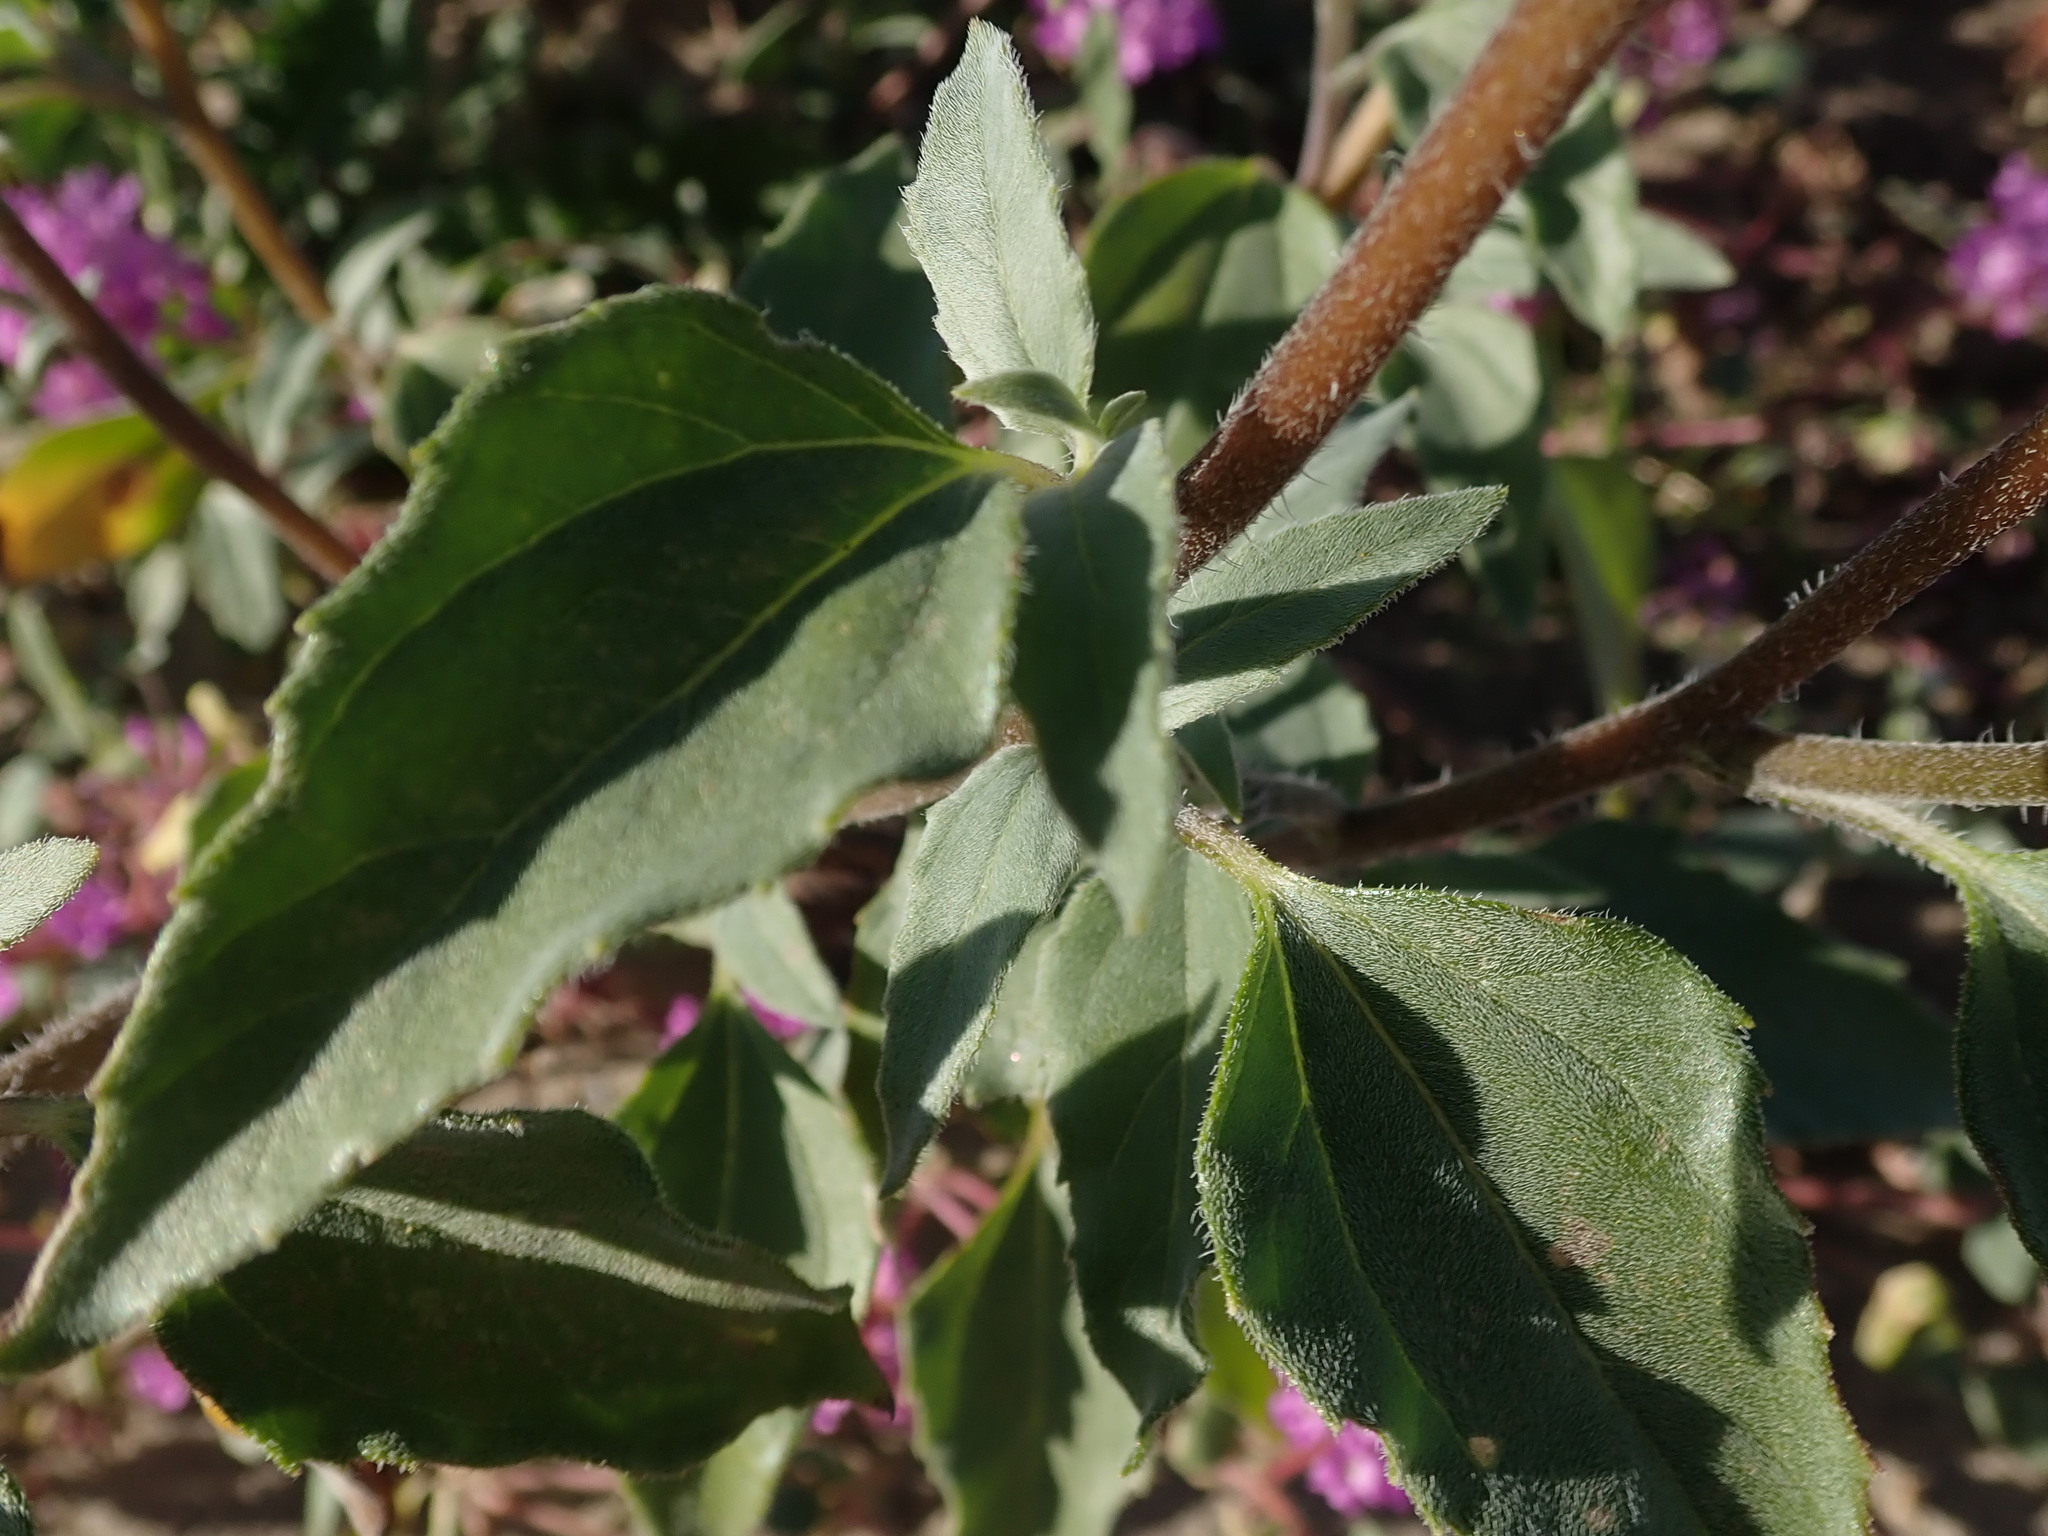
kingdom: Plantae
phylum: Tracheophyta
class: Magnoliopsida
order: Asterales
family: Asteraceae
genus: Helianthus
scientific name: Helianthus petiolaris
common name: Lesser sunflower
